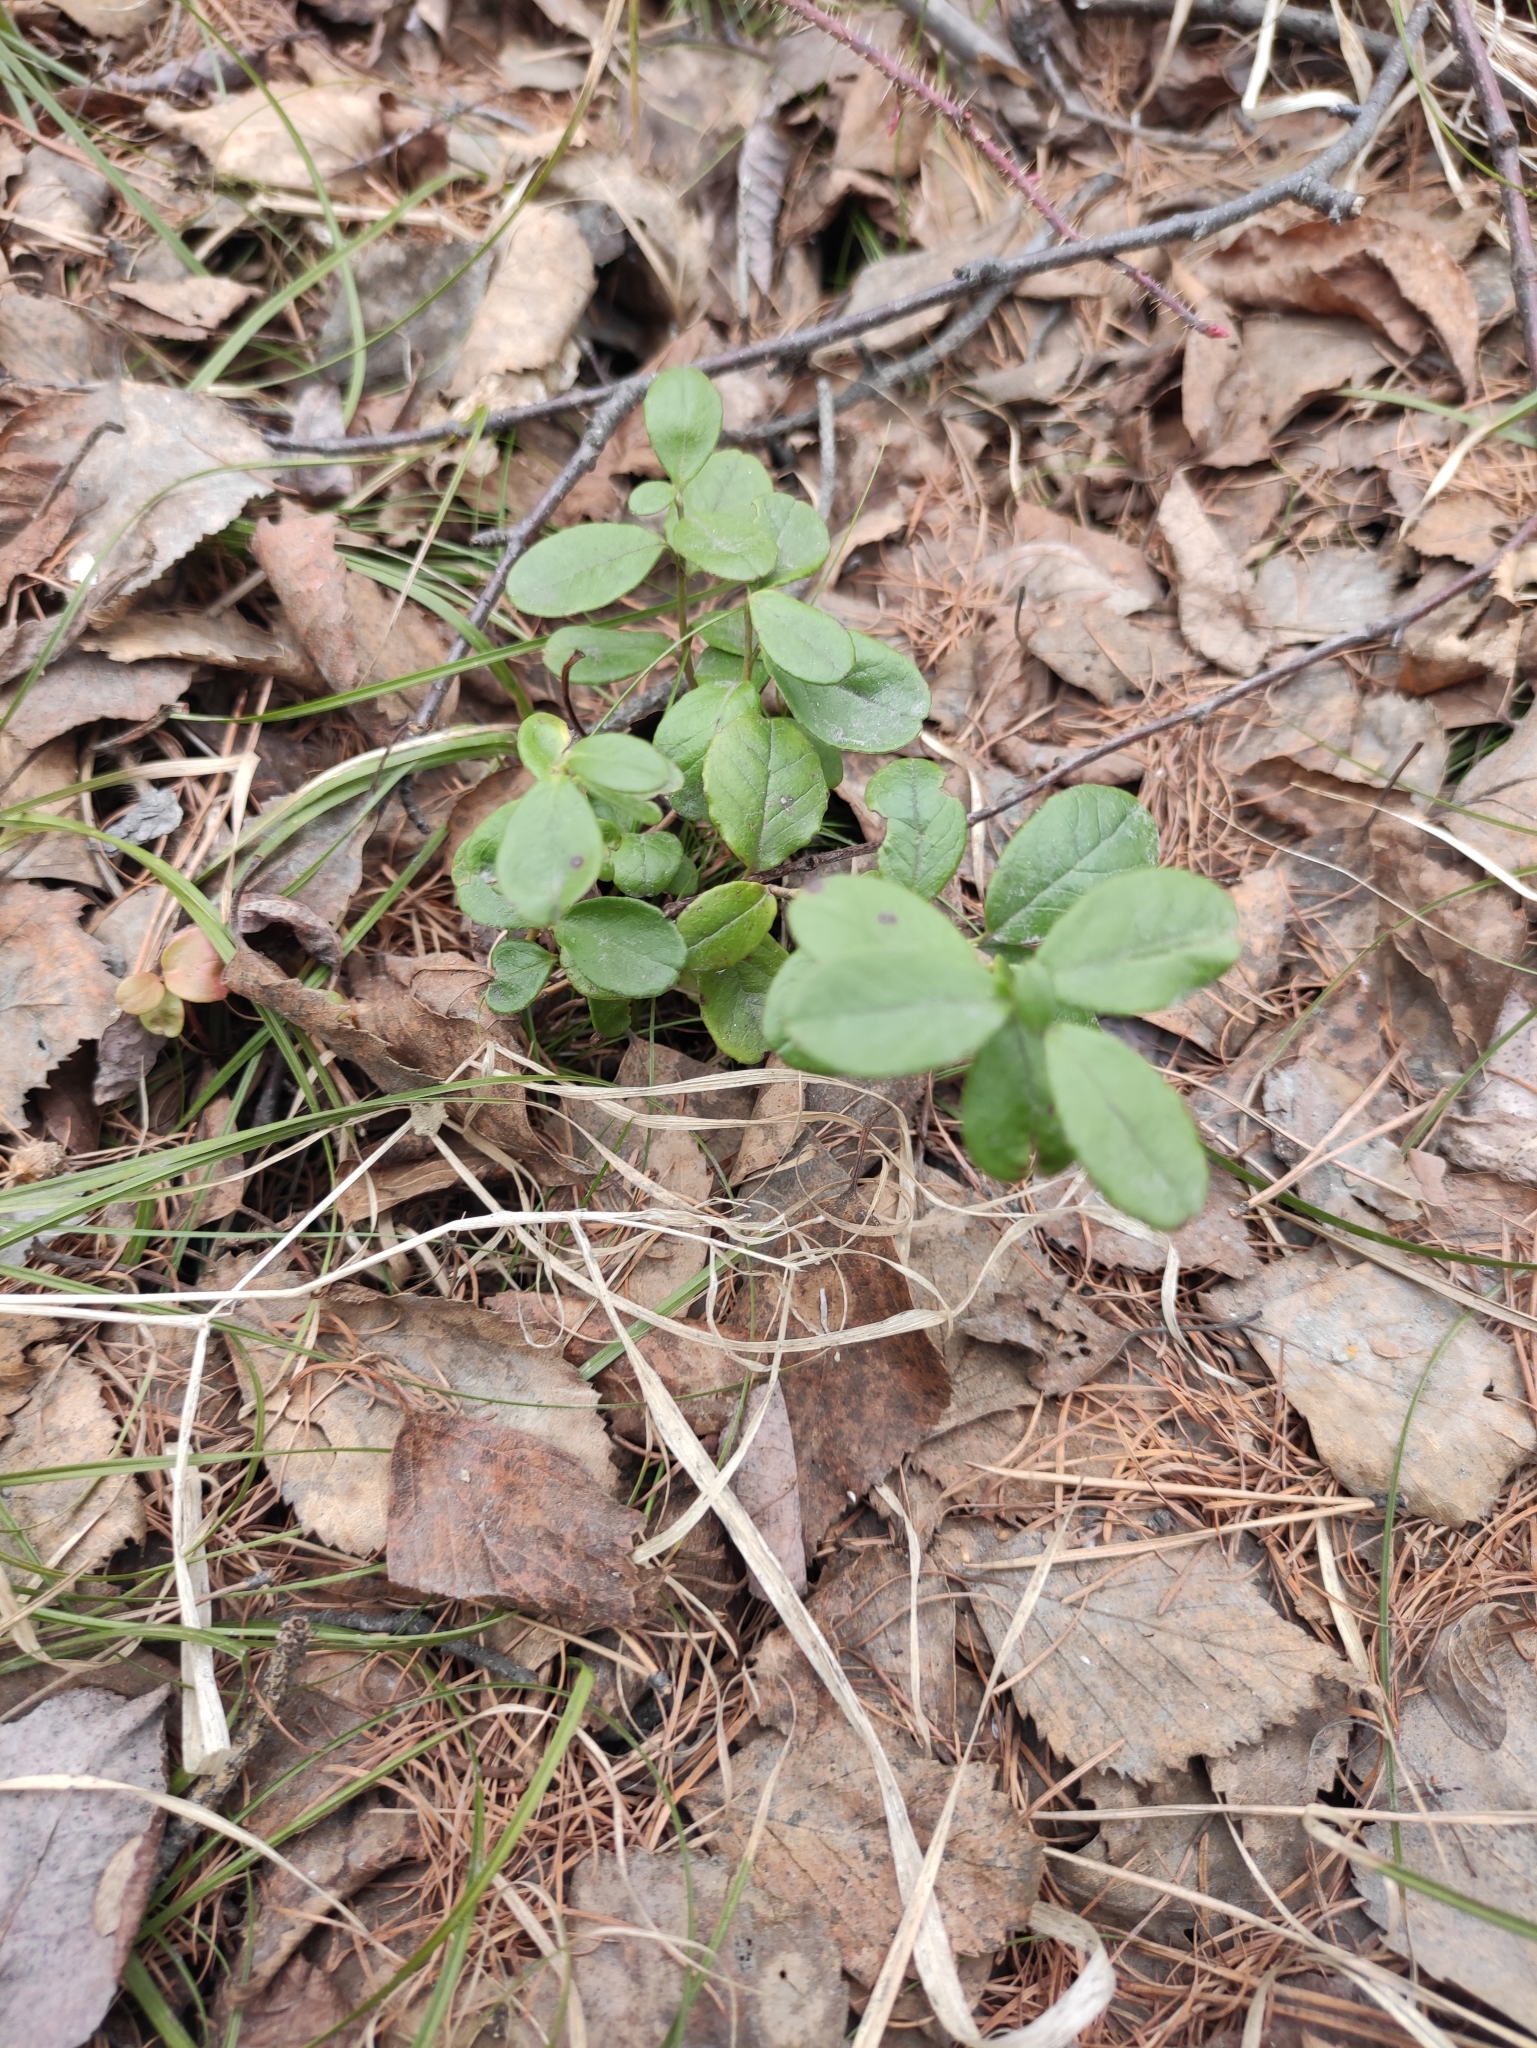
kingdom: Plantae
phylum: Tracheophyta
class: Magnoliopsida
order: Ericales
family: Ericaceae
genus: Vaccinium
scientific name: Vaccinium vitis-idaea
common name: Cowberry
